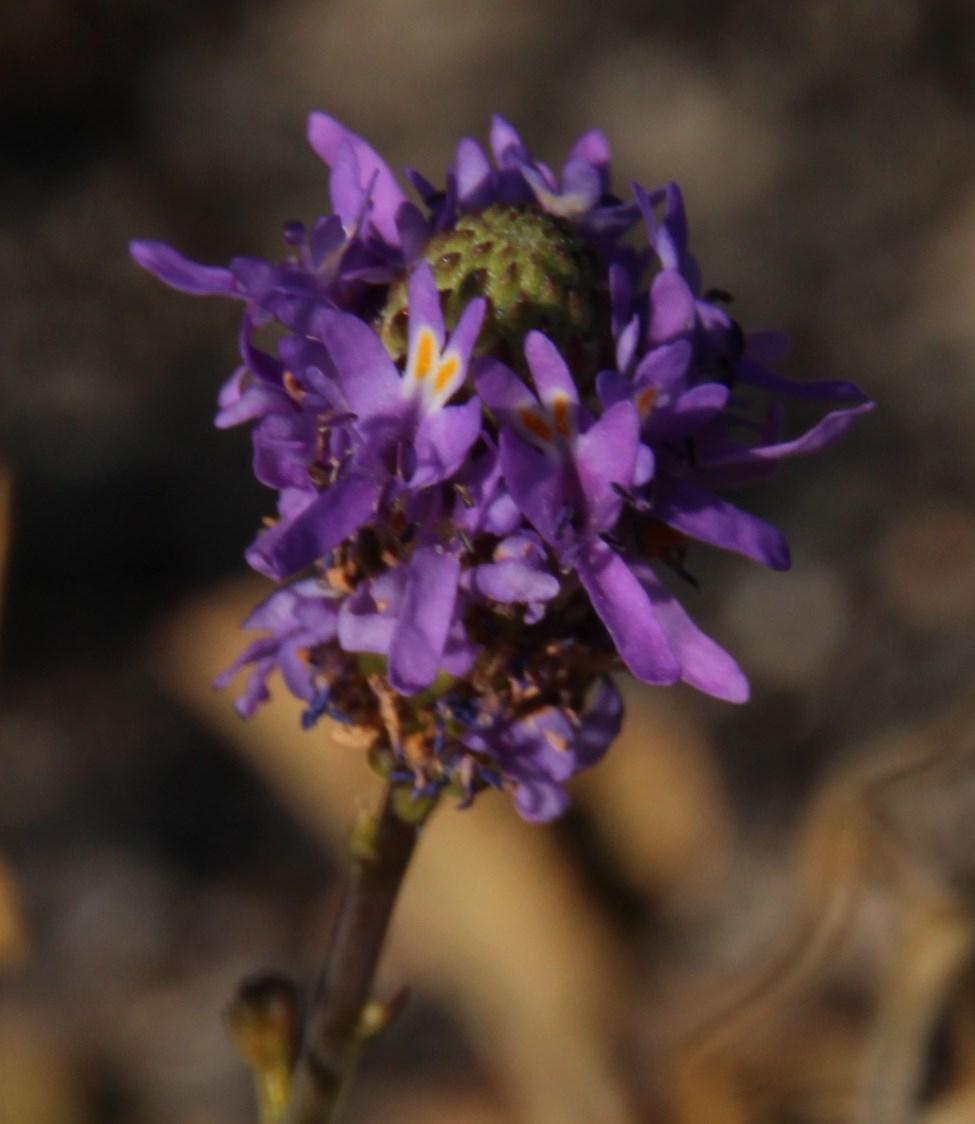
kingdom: Plantae
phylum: Tracheophyta
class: Magnoliopsida
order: Lamiales
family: Scrophulariaceae
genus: Pseudoselago
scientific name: Pseudoselago similis
